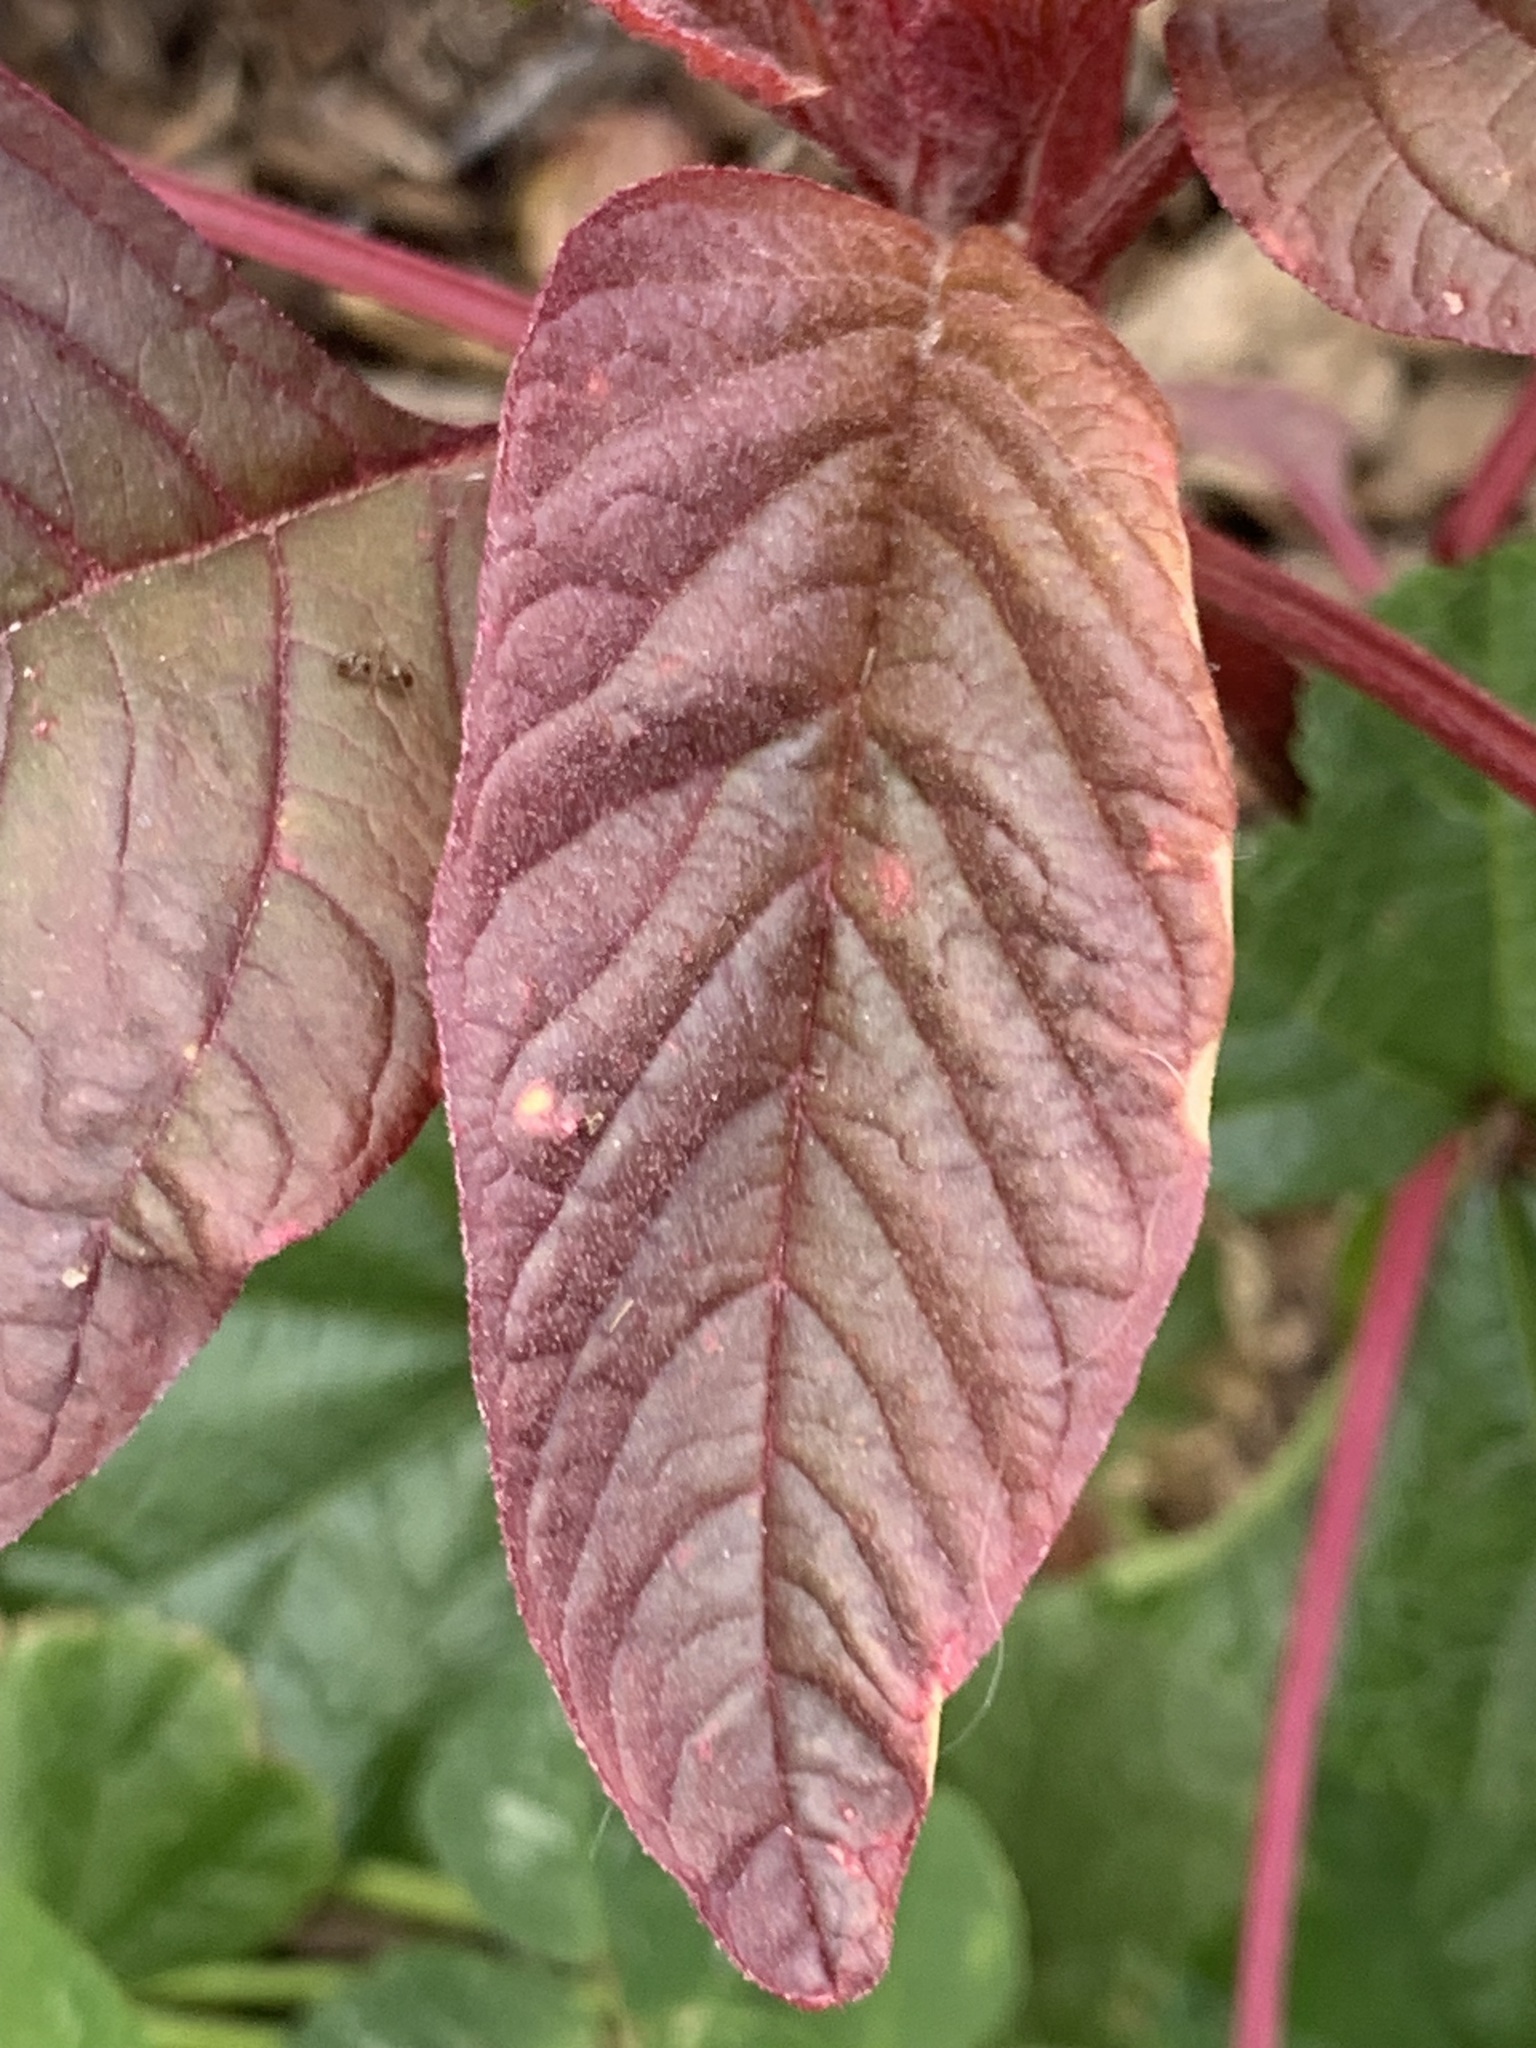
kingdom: Plantae
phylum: Tracheophyta
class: Magnoliopsida
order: Caryophyllales
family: Amaranthaceae
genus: Amaranthus
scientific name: Amaranthus cruentus
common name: Purple amaranth
